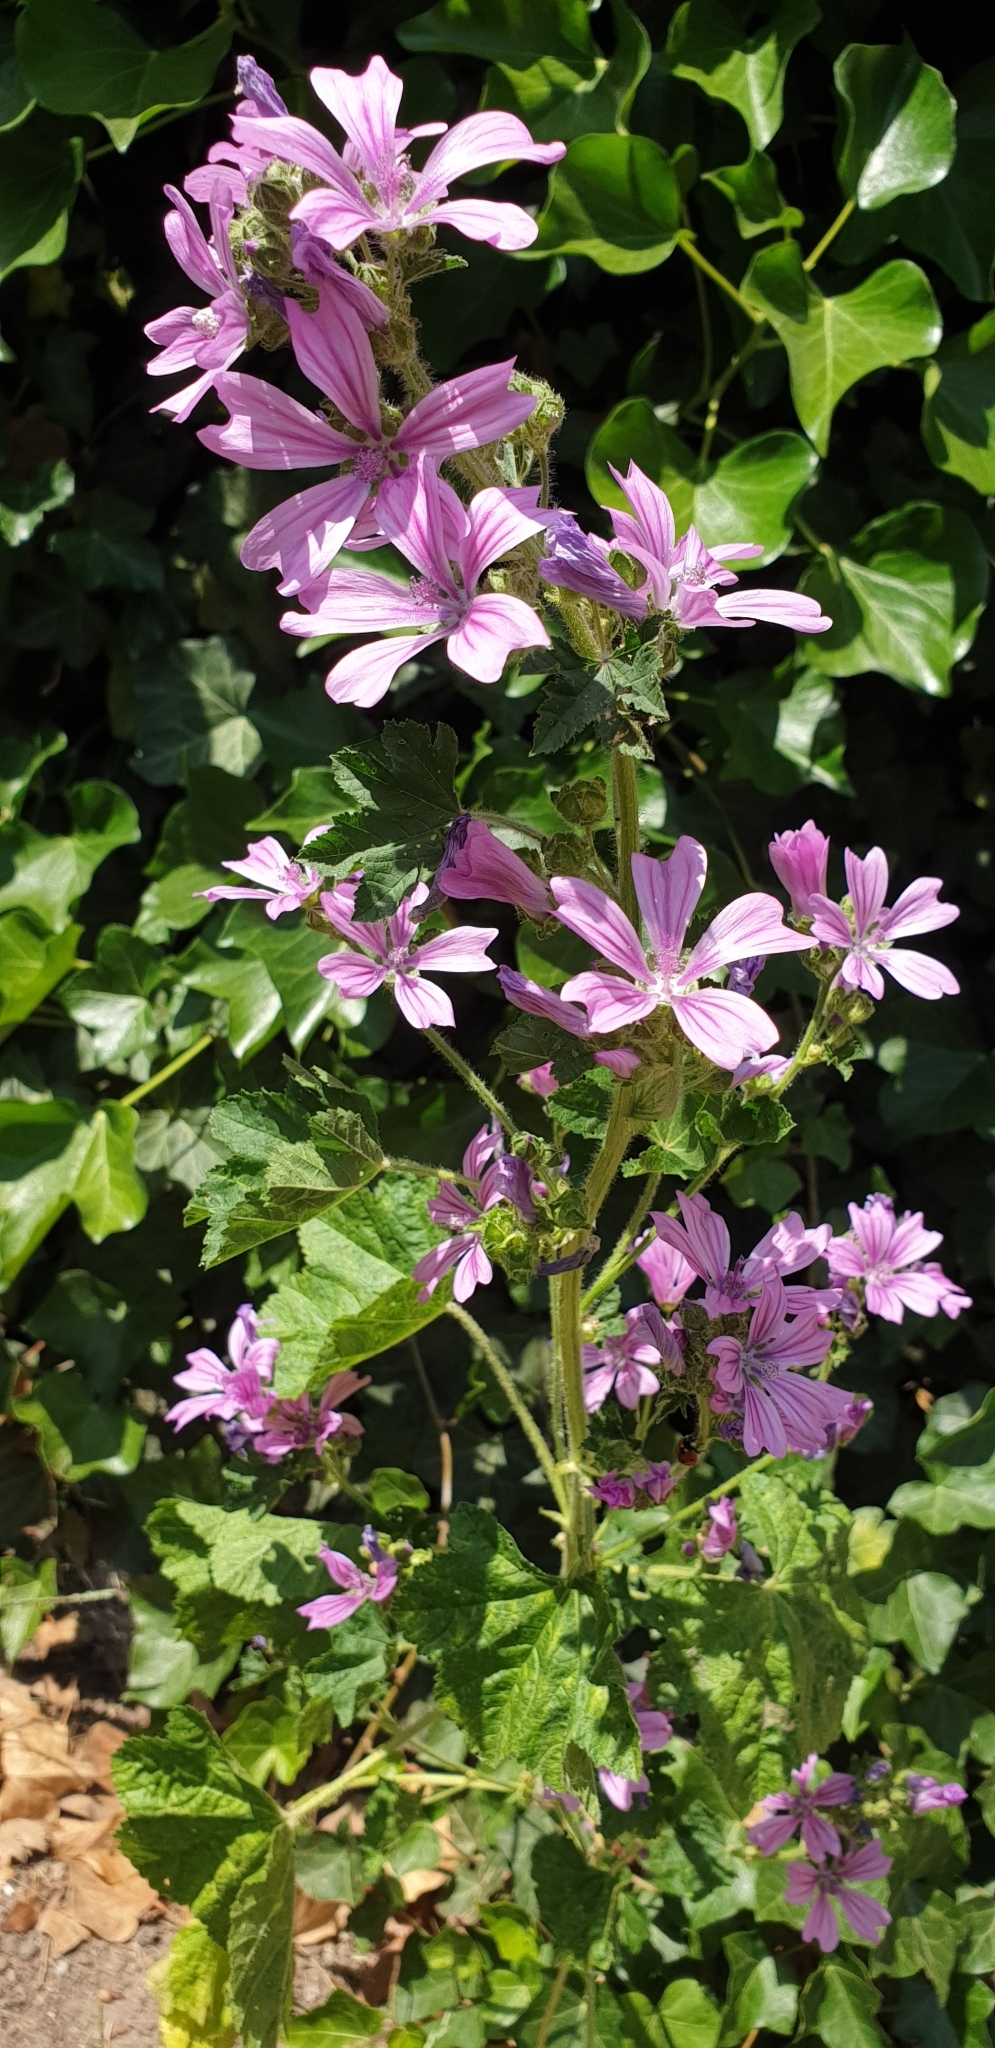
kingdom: Plantae
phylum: Tracheophyta
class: Magnoliopsida
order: Malvales
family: Malvaceae
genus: Malva
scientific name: Malva sylvestris
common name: Common mallow
